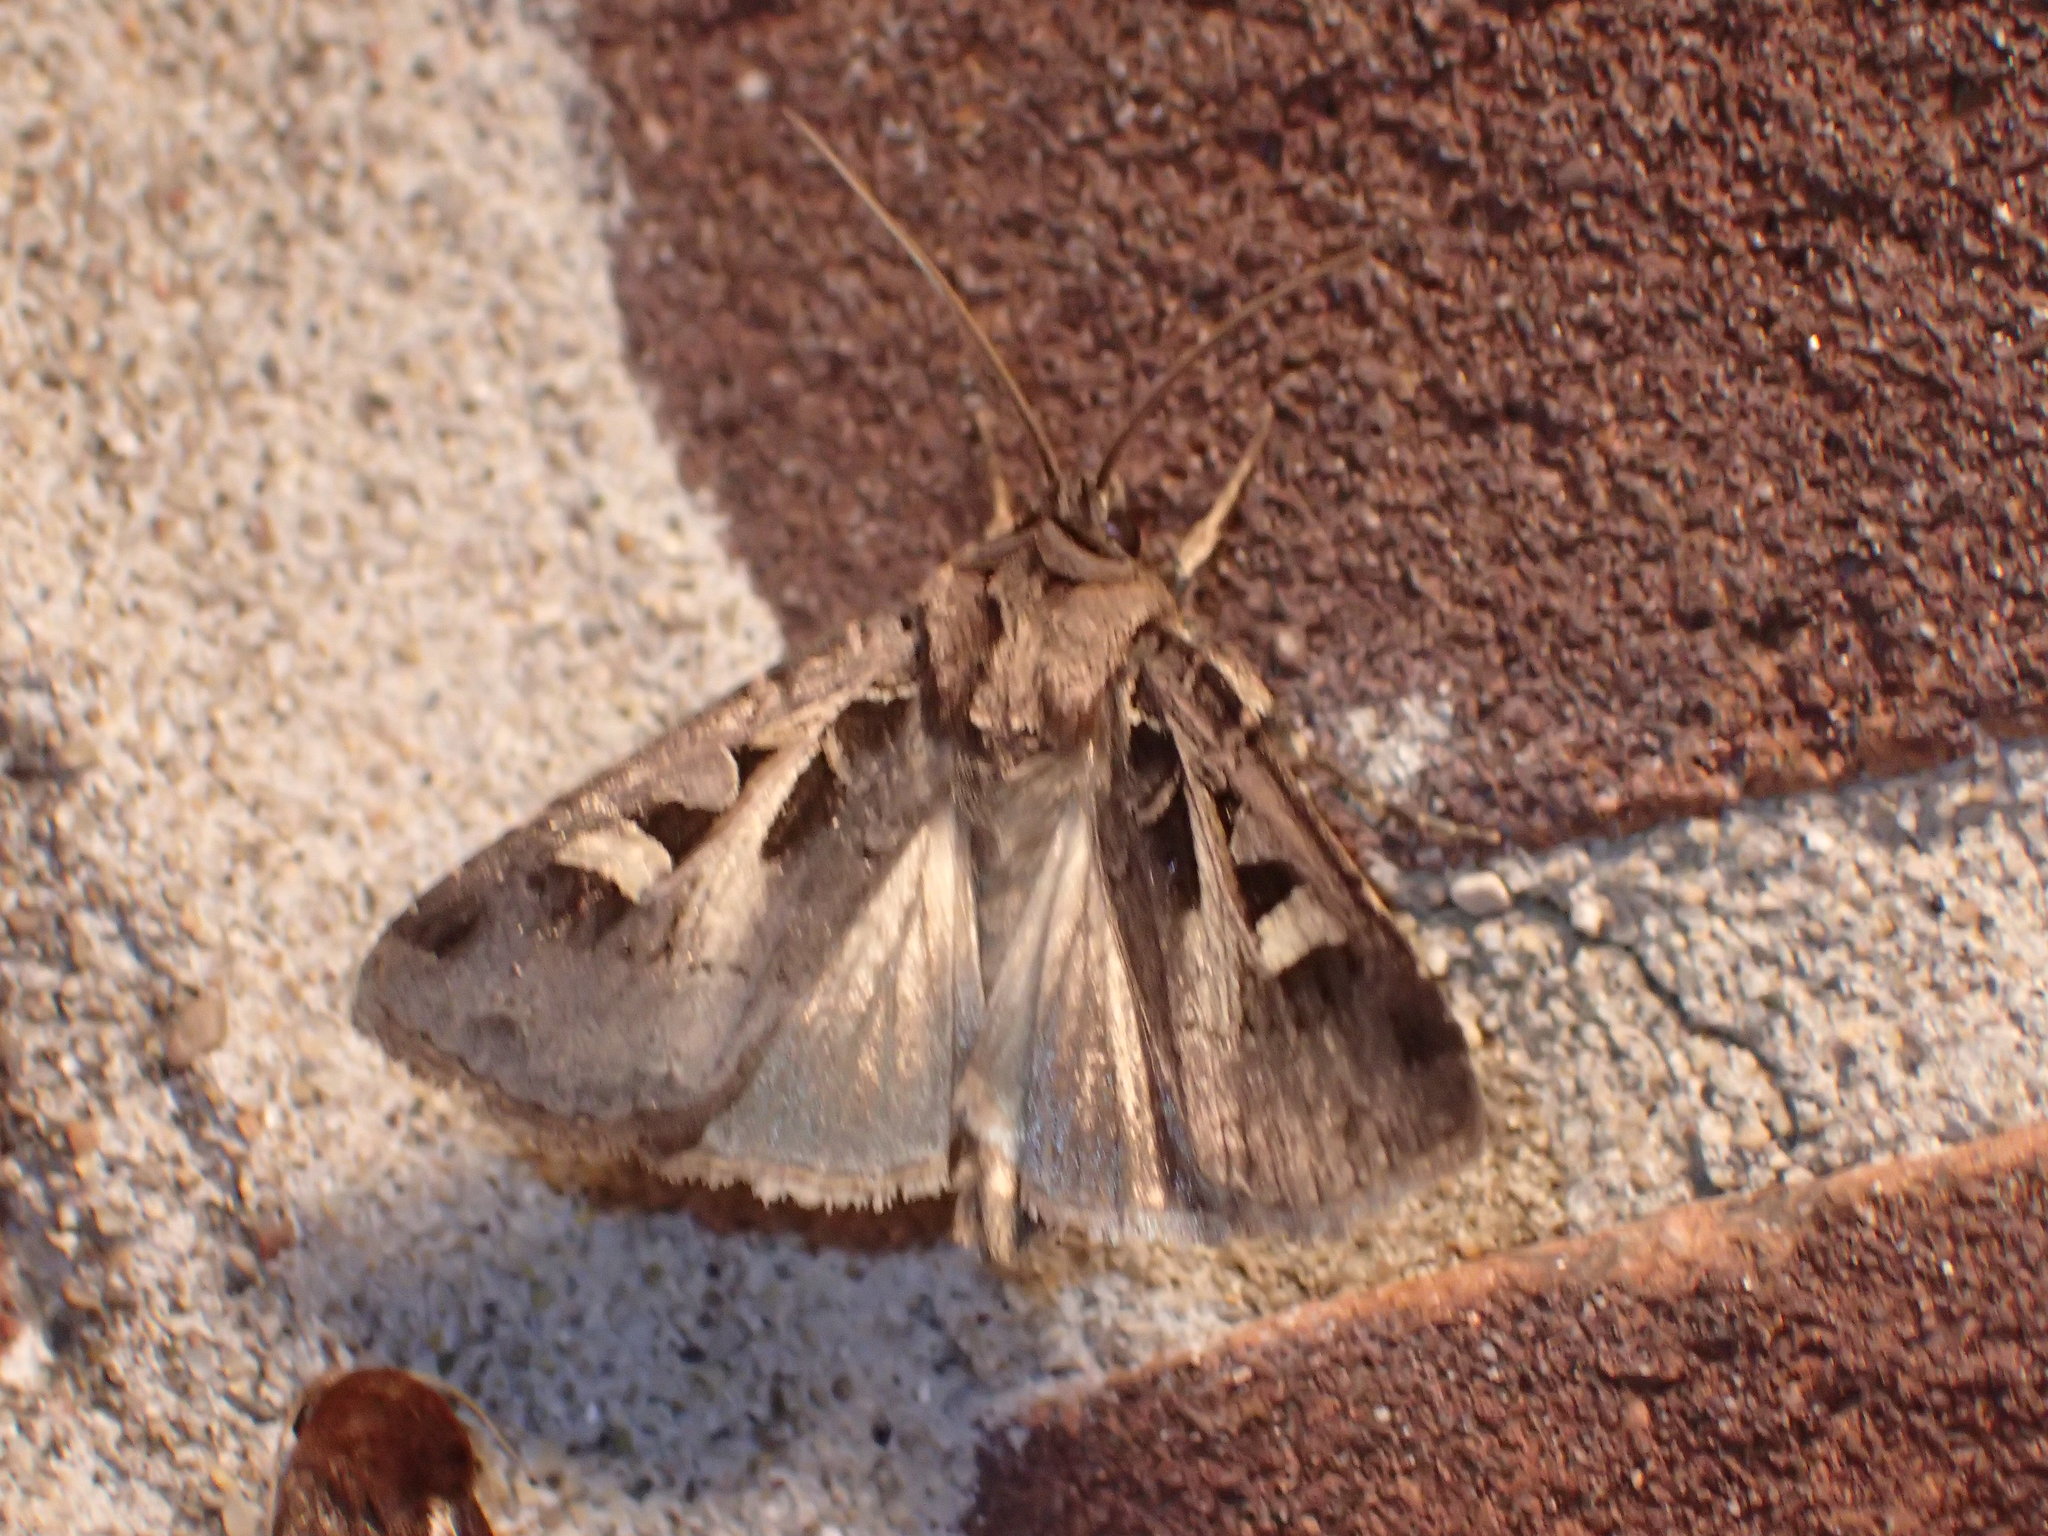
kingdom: Animalia
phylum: Arthropoda
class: Insecta
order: Lepidoptera
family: Noctuidae
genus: Feltia
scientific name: Feltia herilis
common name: Master's dart
